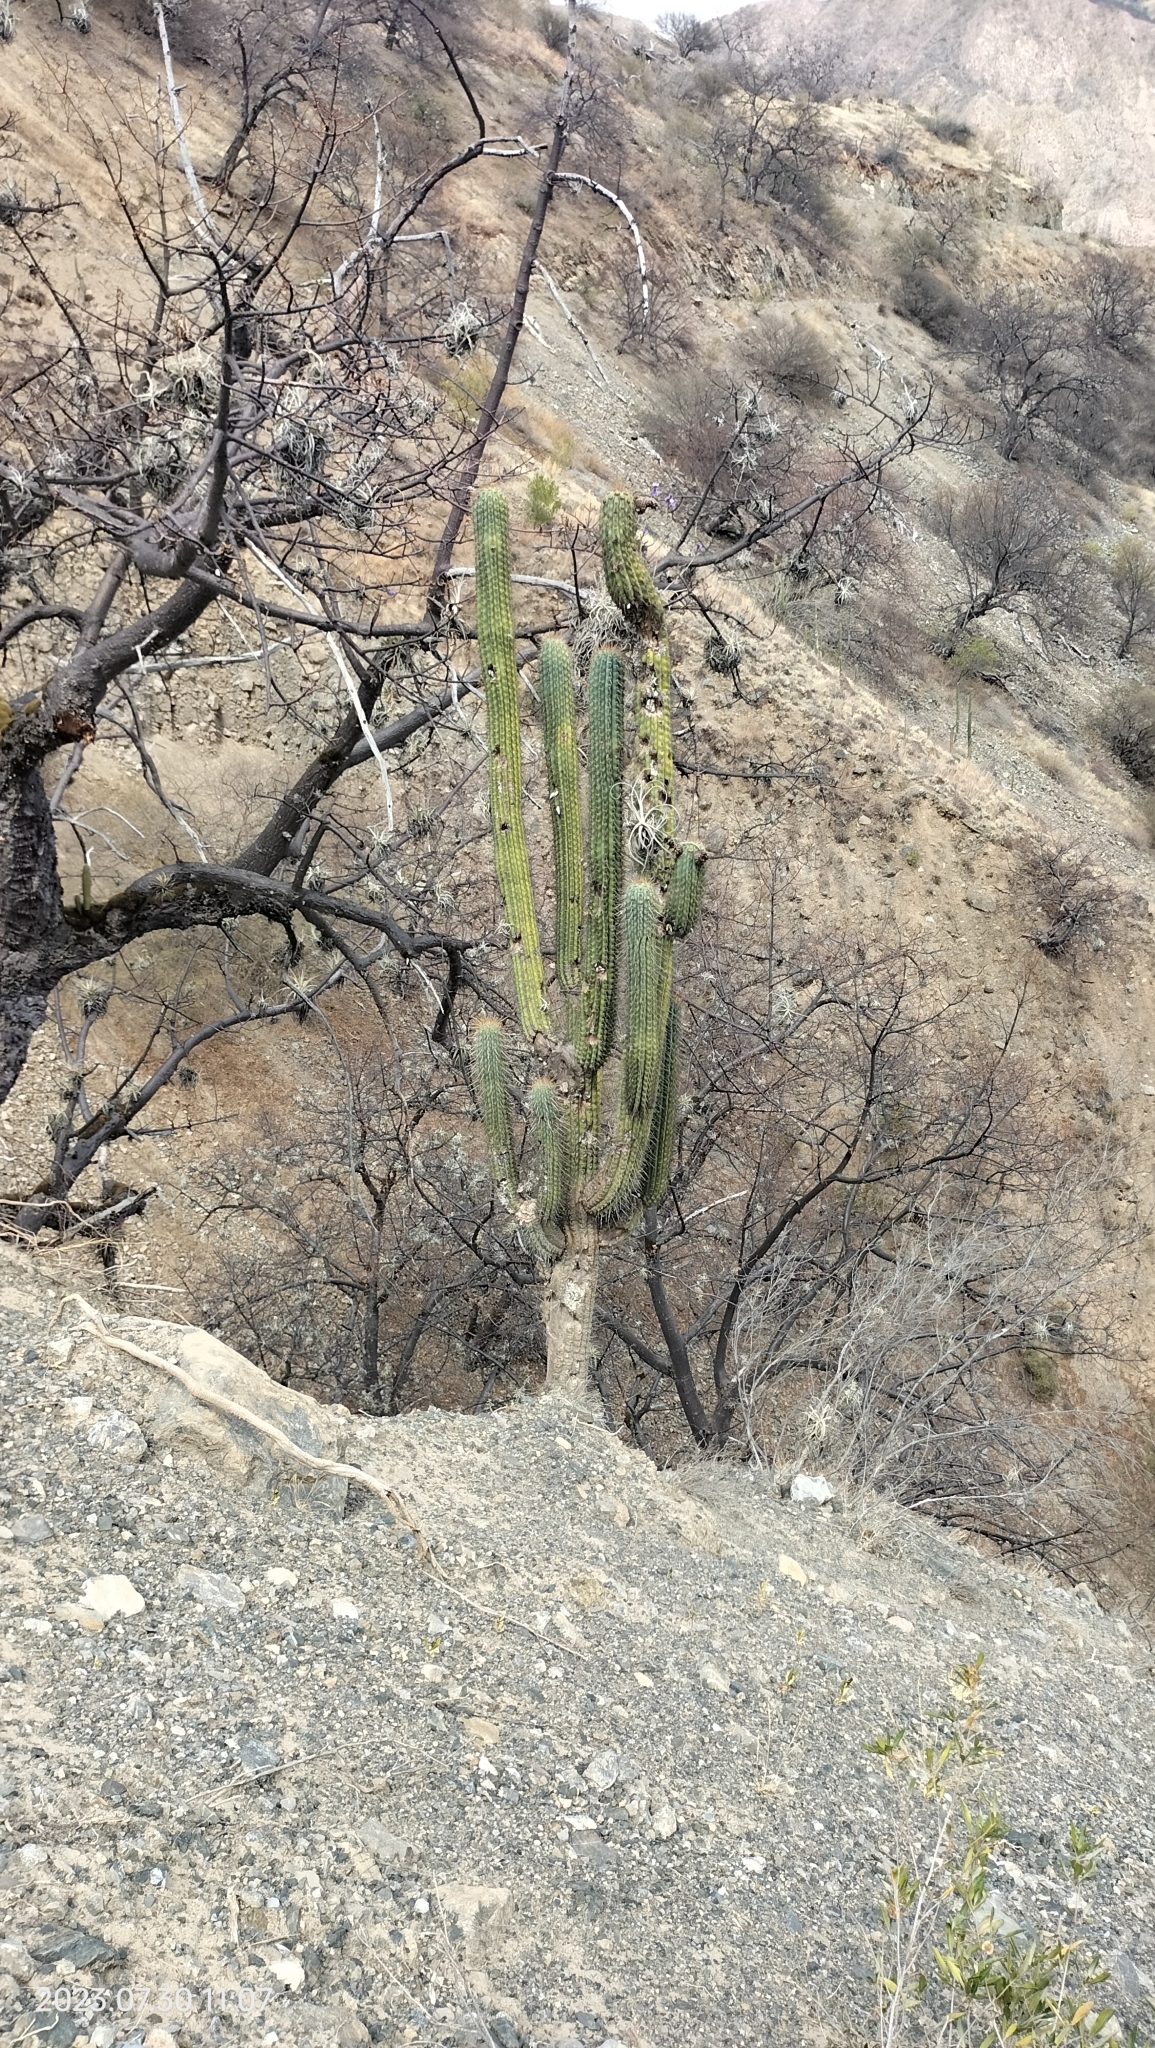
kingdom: Plantae
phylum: Tracheophyta
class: Magnoliopsida
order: Caryophyllales
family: Cactaceae
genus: Browningia
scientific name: Browningia hertlingiana
